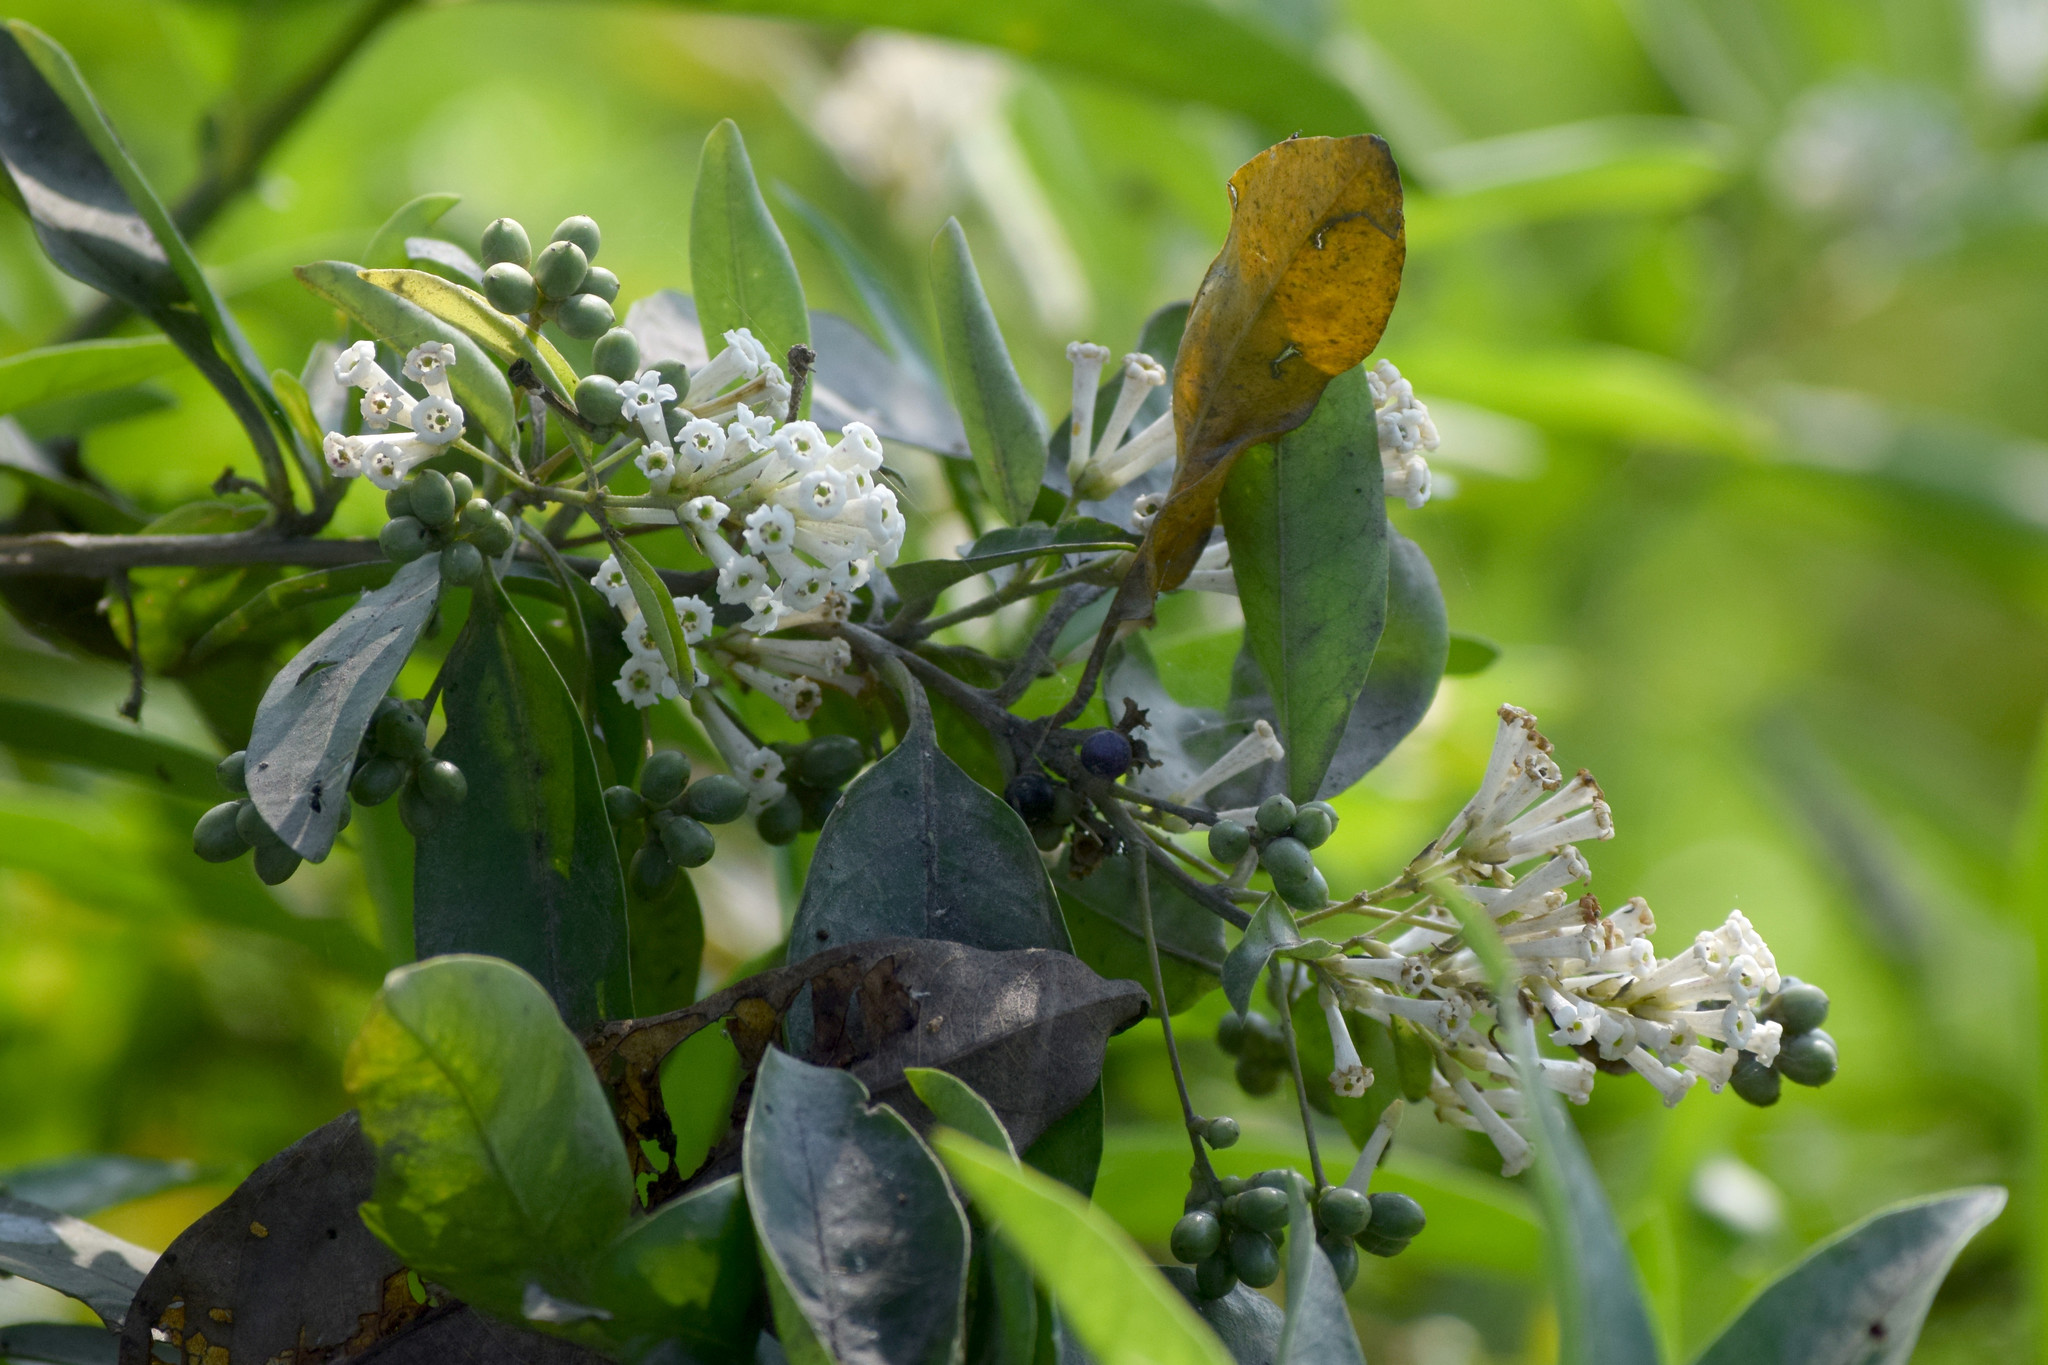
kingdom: Plantae
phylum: Tracheophyta
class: Magnoliopsida
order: Solanales
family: Solanaceae
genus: Cestrum
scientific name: Cestrum diurnum
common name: Day jessamine
